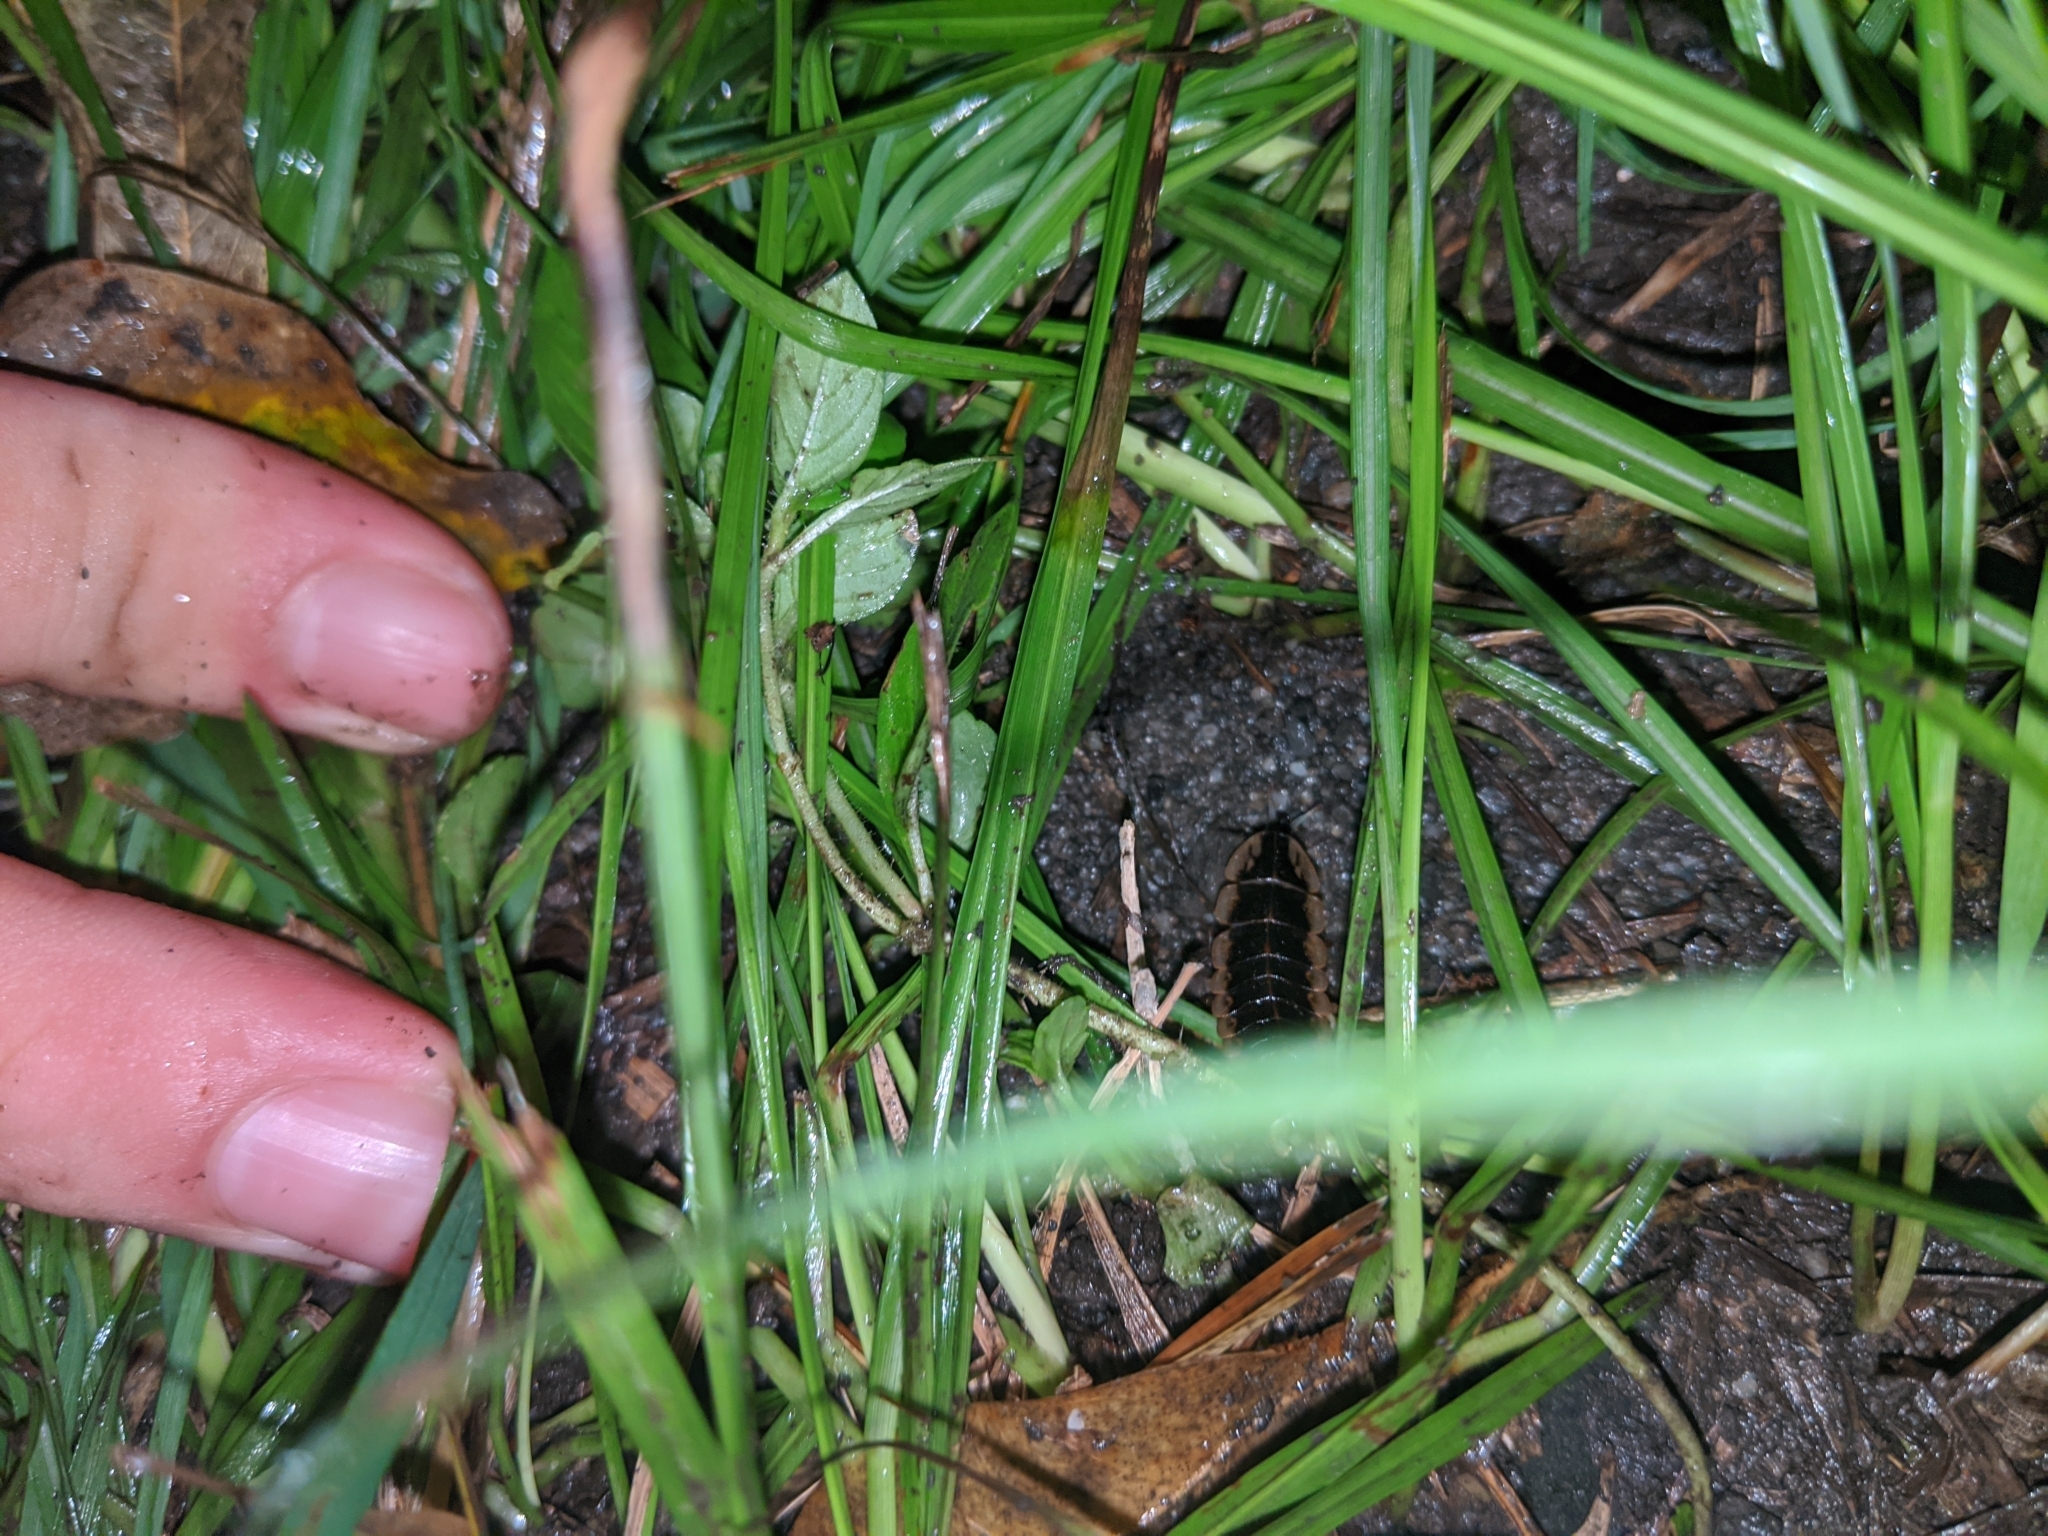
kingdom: Animalia
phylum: Arthropoda
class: Insecta
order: Coleoptera
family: Lampyridae
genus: Lamprigera
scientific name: Lamprigera yunnana
